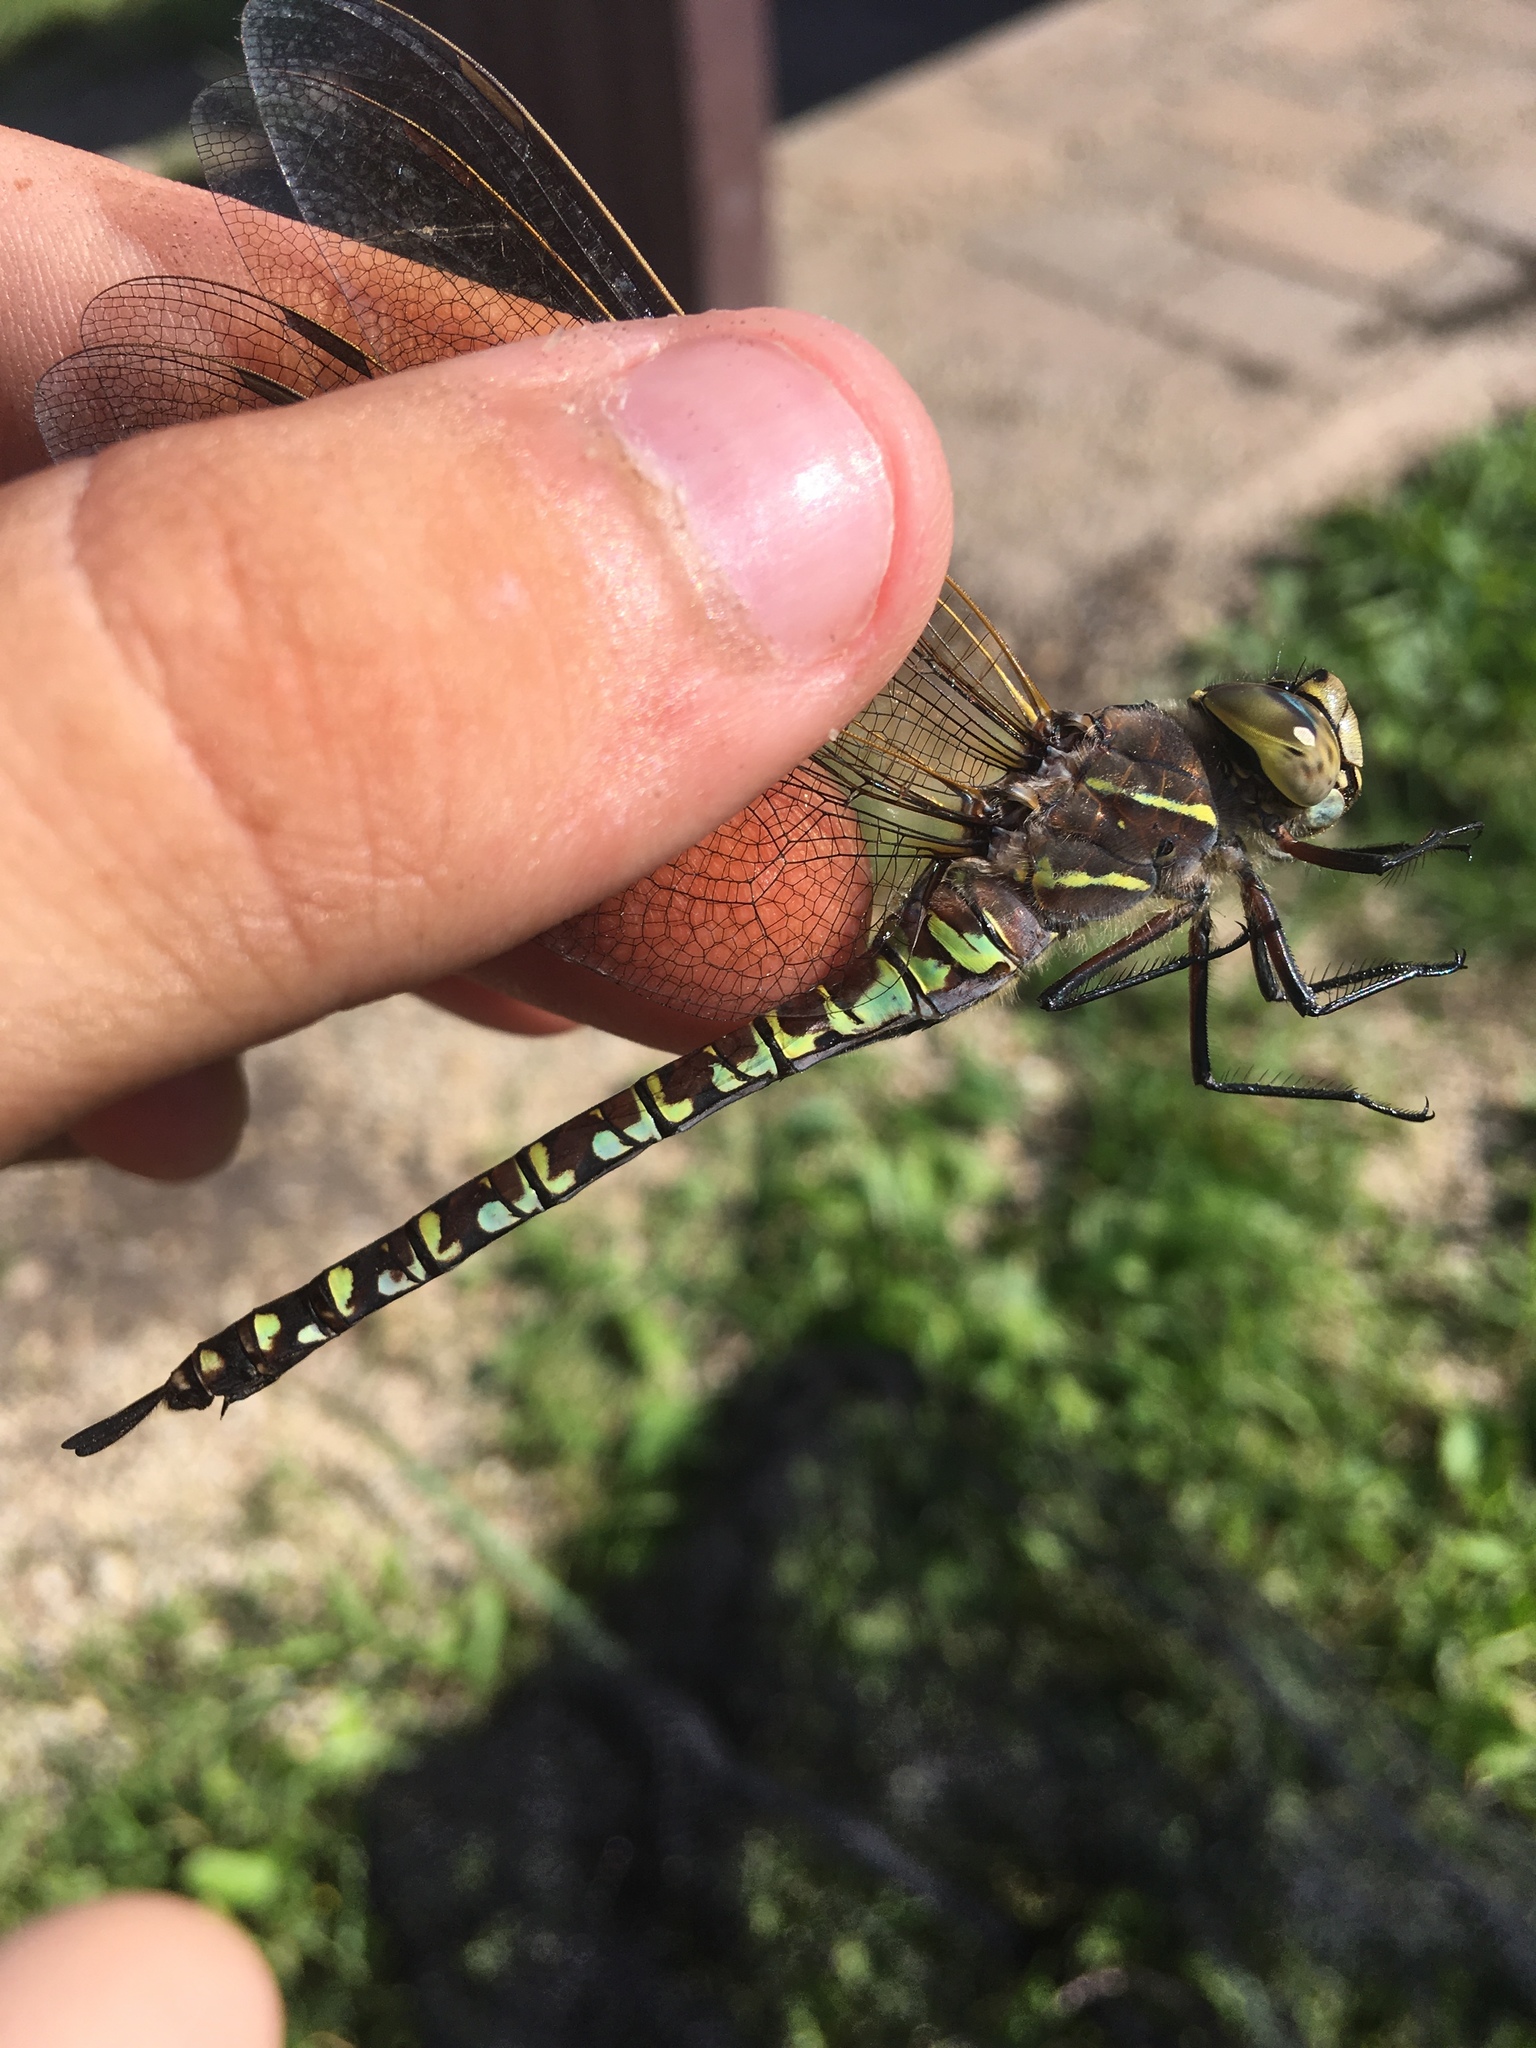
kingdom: Animalia
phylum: Arthropoda
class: Insecta
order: Odonata
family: Aeshnidae
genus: Aeshna
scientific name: Aeshna interrupta
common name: Variable darner
